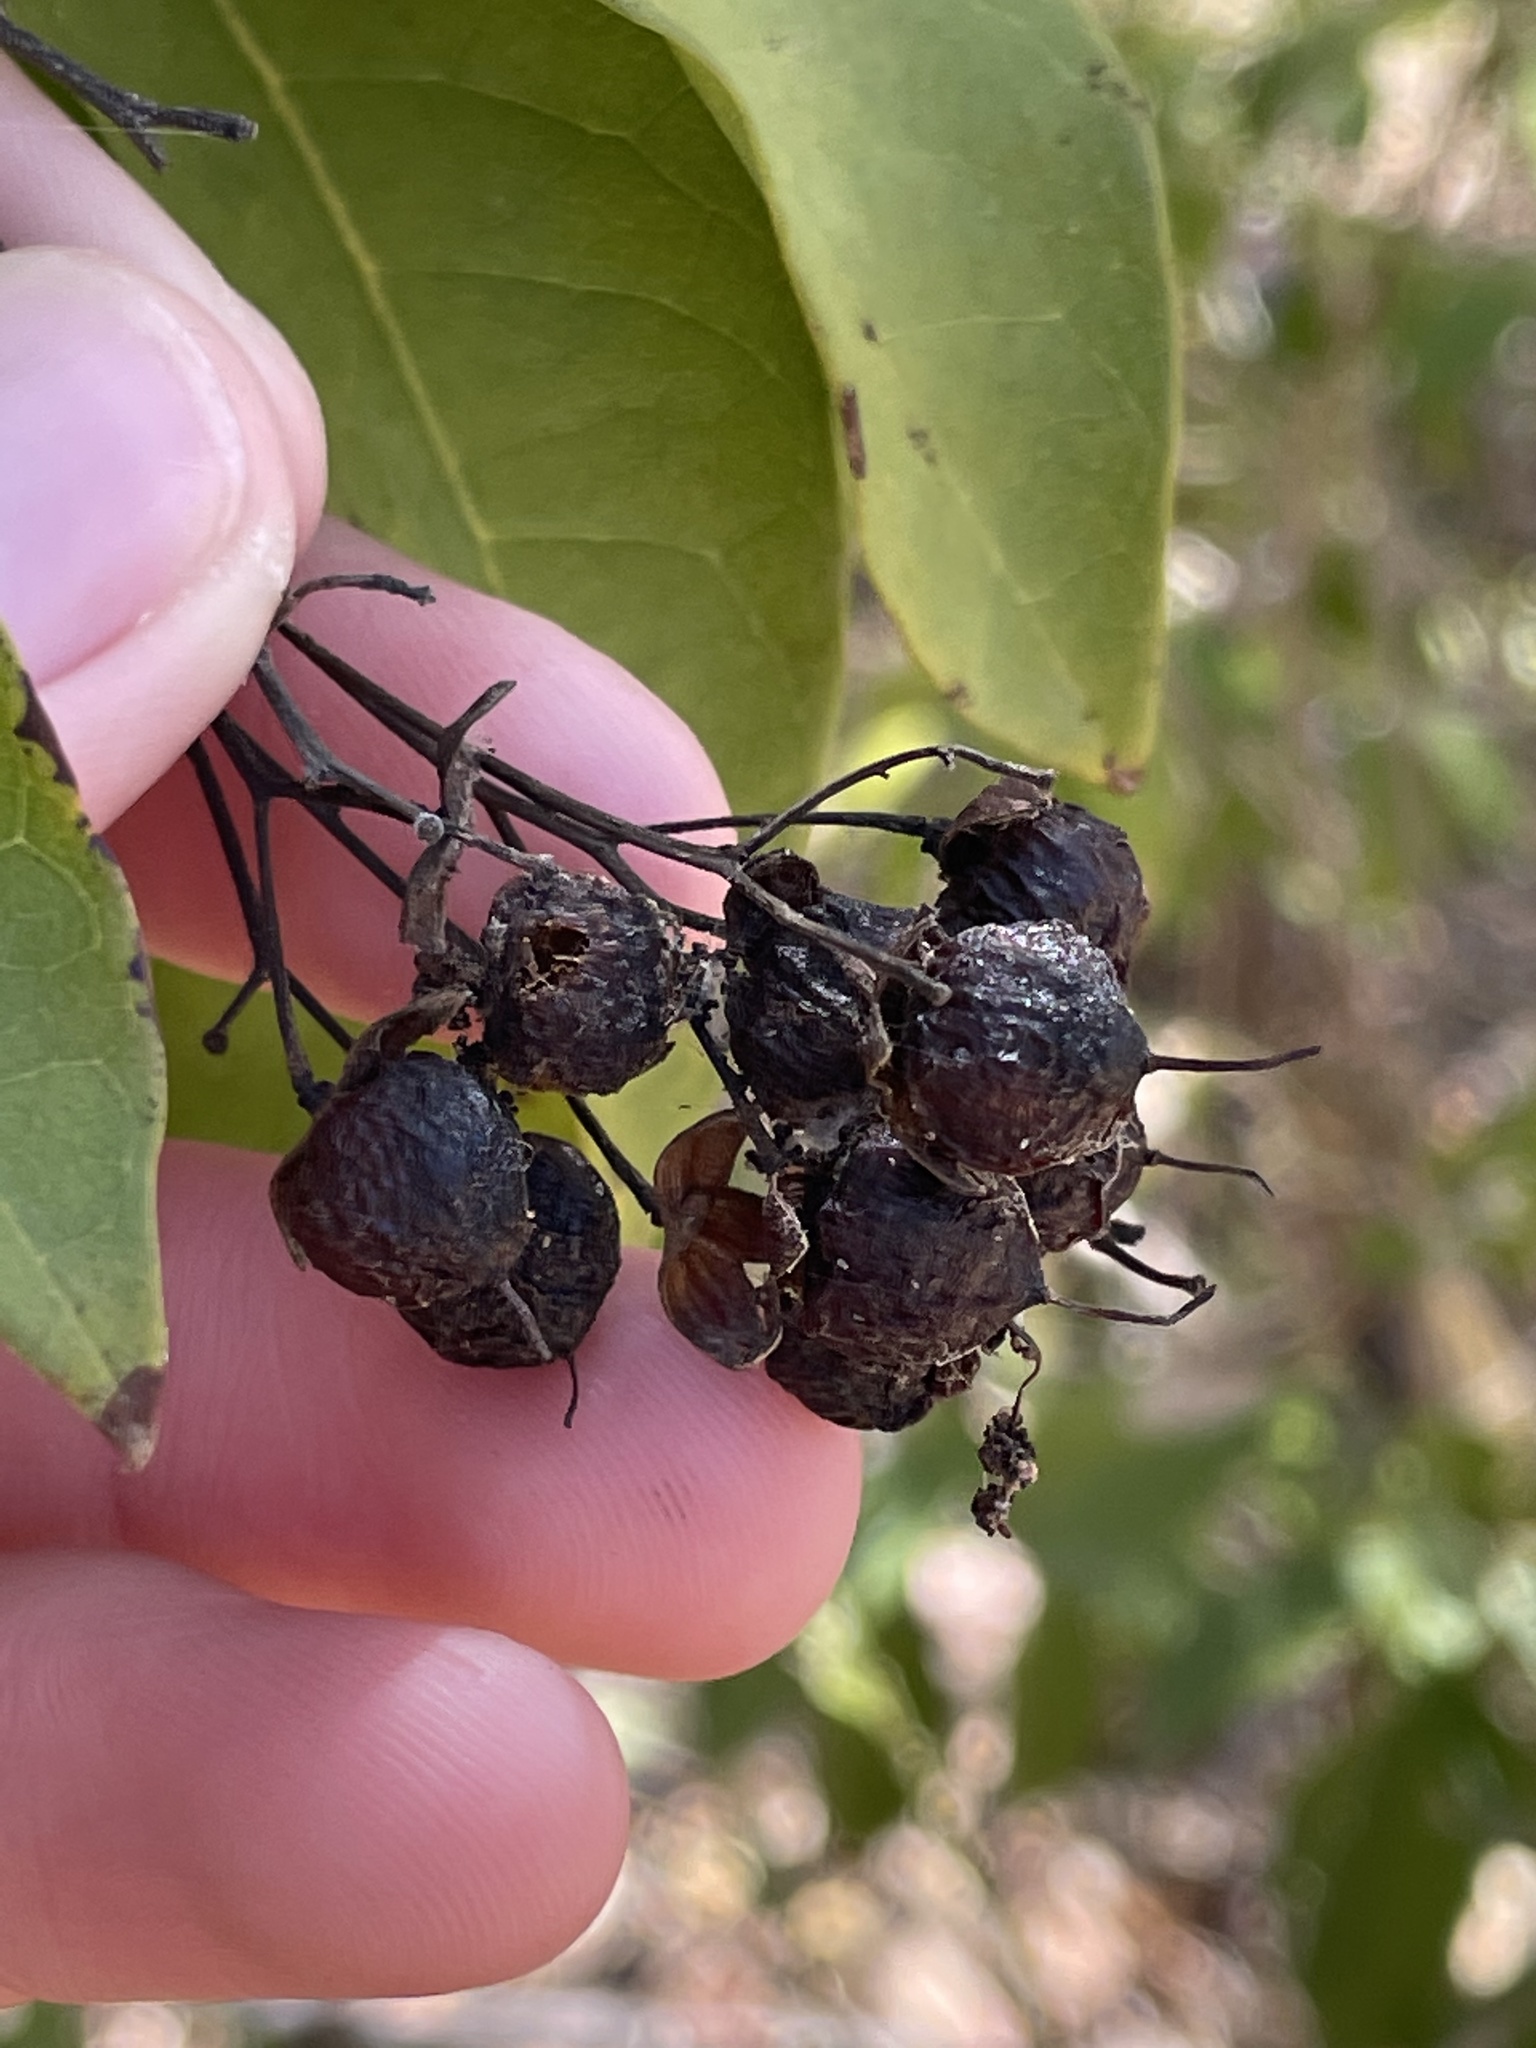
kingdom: Plantae
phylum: Tracheophyta
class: Magnoliopsida
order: Boraginales
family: Ehretiaceae
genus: Bourreria
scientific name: Bourreria succulenta
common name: Cherry
